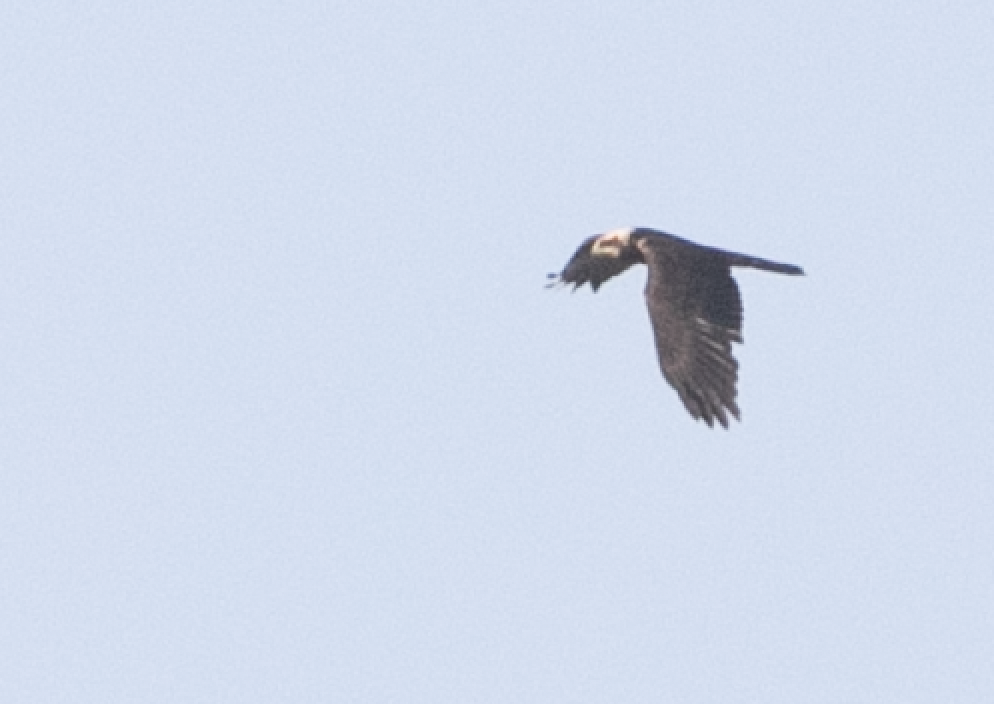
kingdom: Animalia
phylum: Chordata
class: Aves
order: Accipitriformes
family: Accipitridae
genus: Circus
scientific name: Circus aeruginosus
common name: Western marsh harrier
